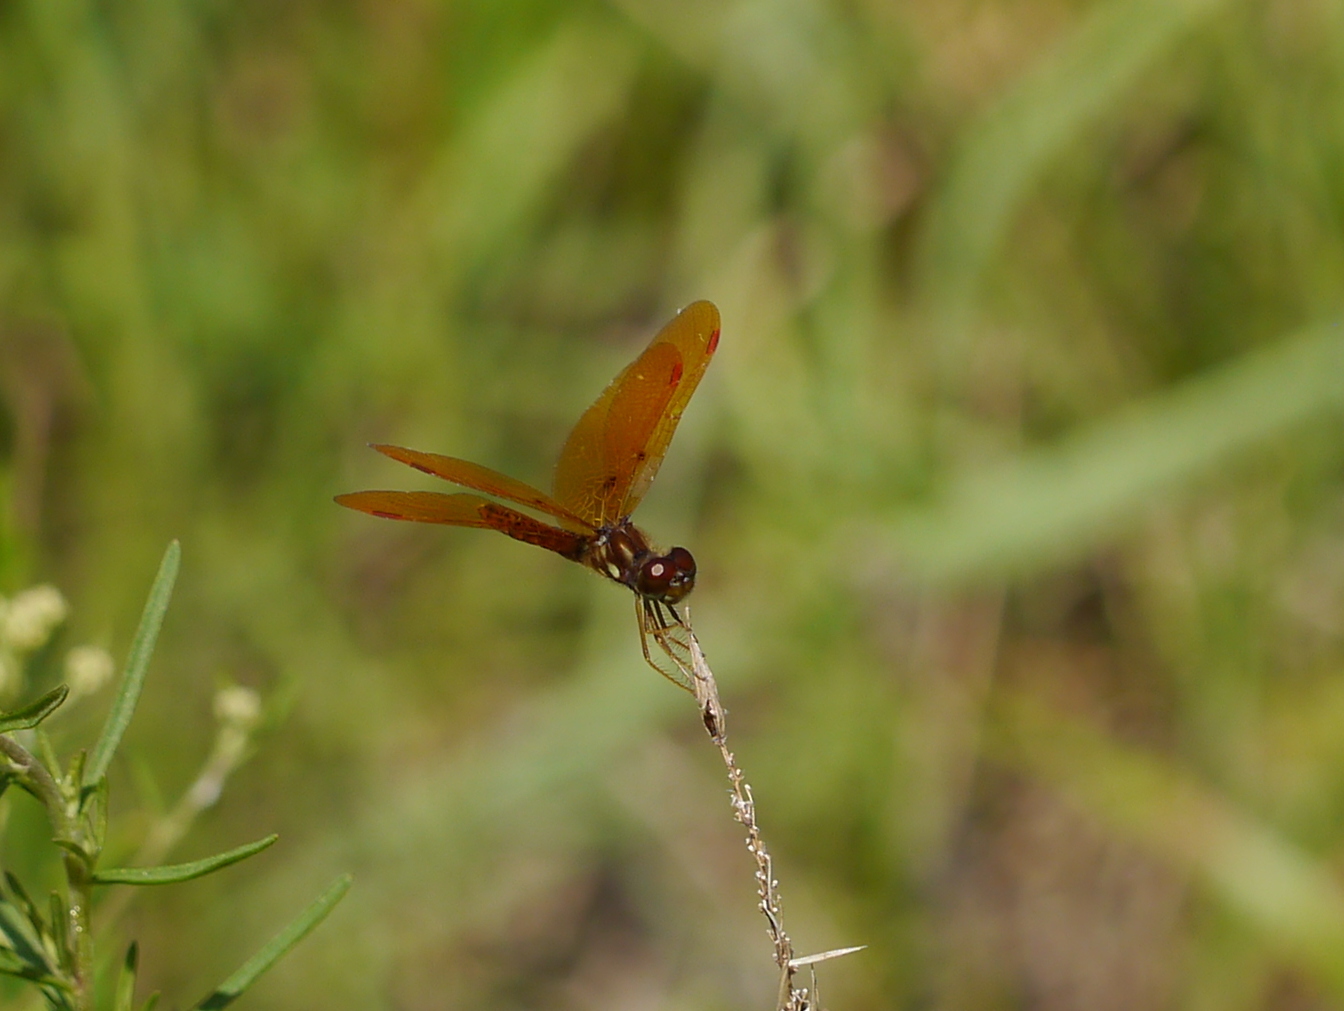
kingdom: Animalia
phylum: Arthropoda
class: Insecta
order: Odonata
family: Libellulidae
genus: Perithemis
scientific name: Perithemis tenera
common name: Eastern amberwing
